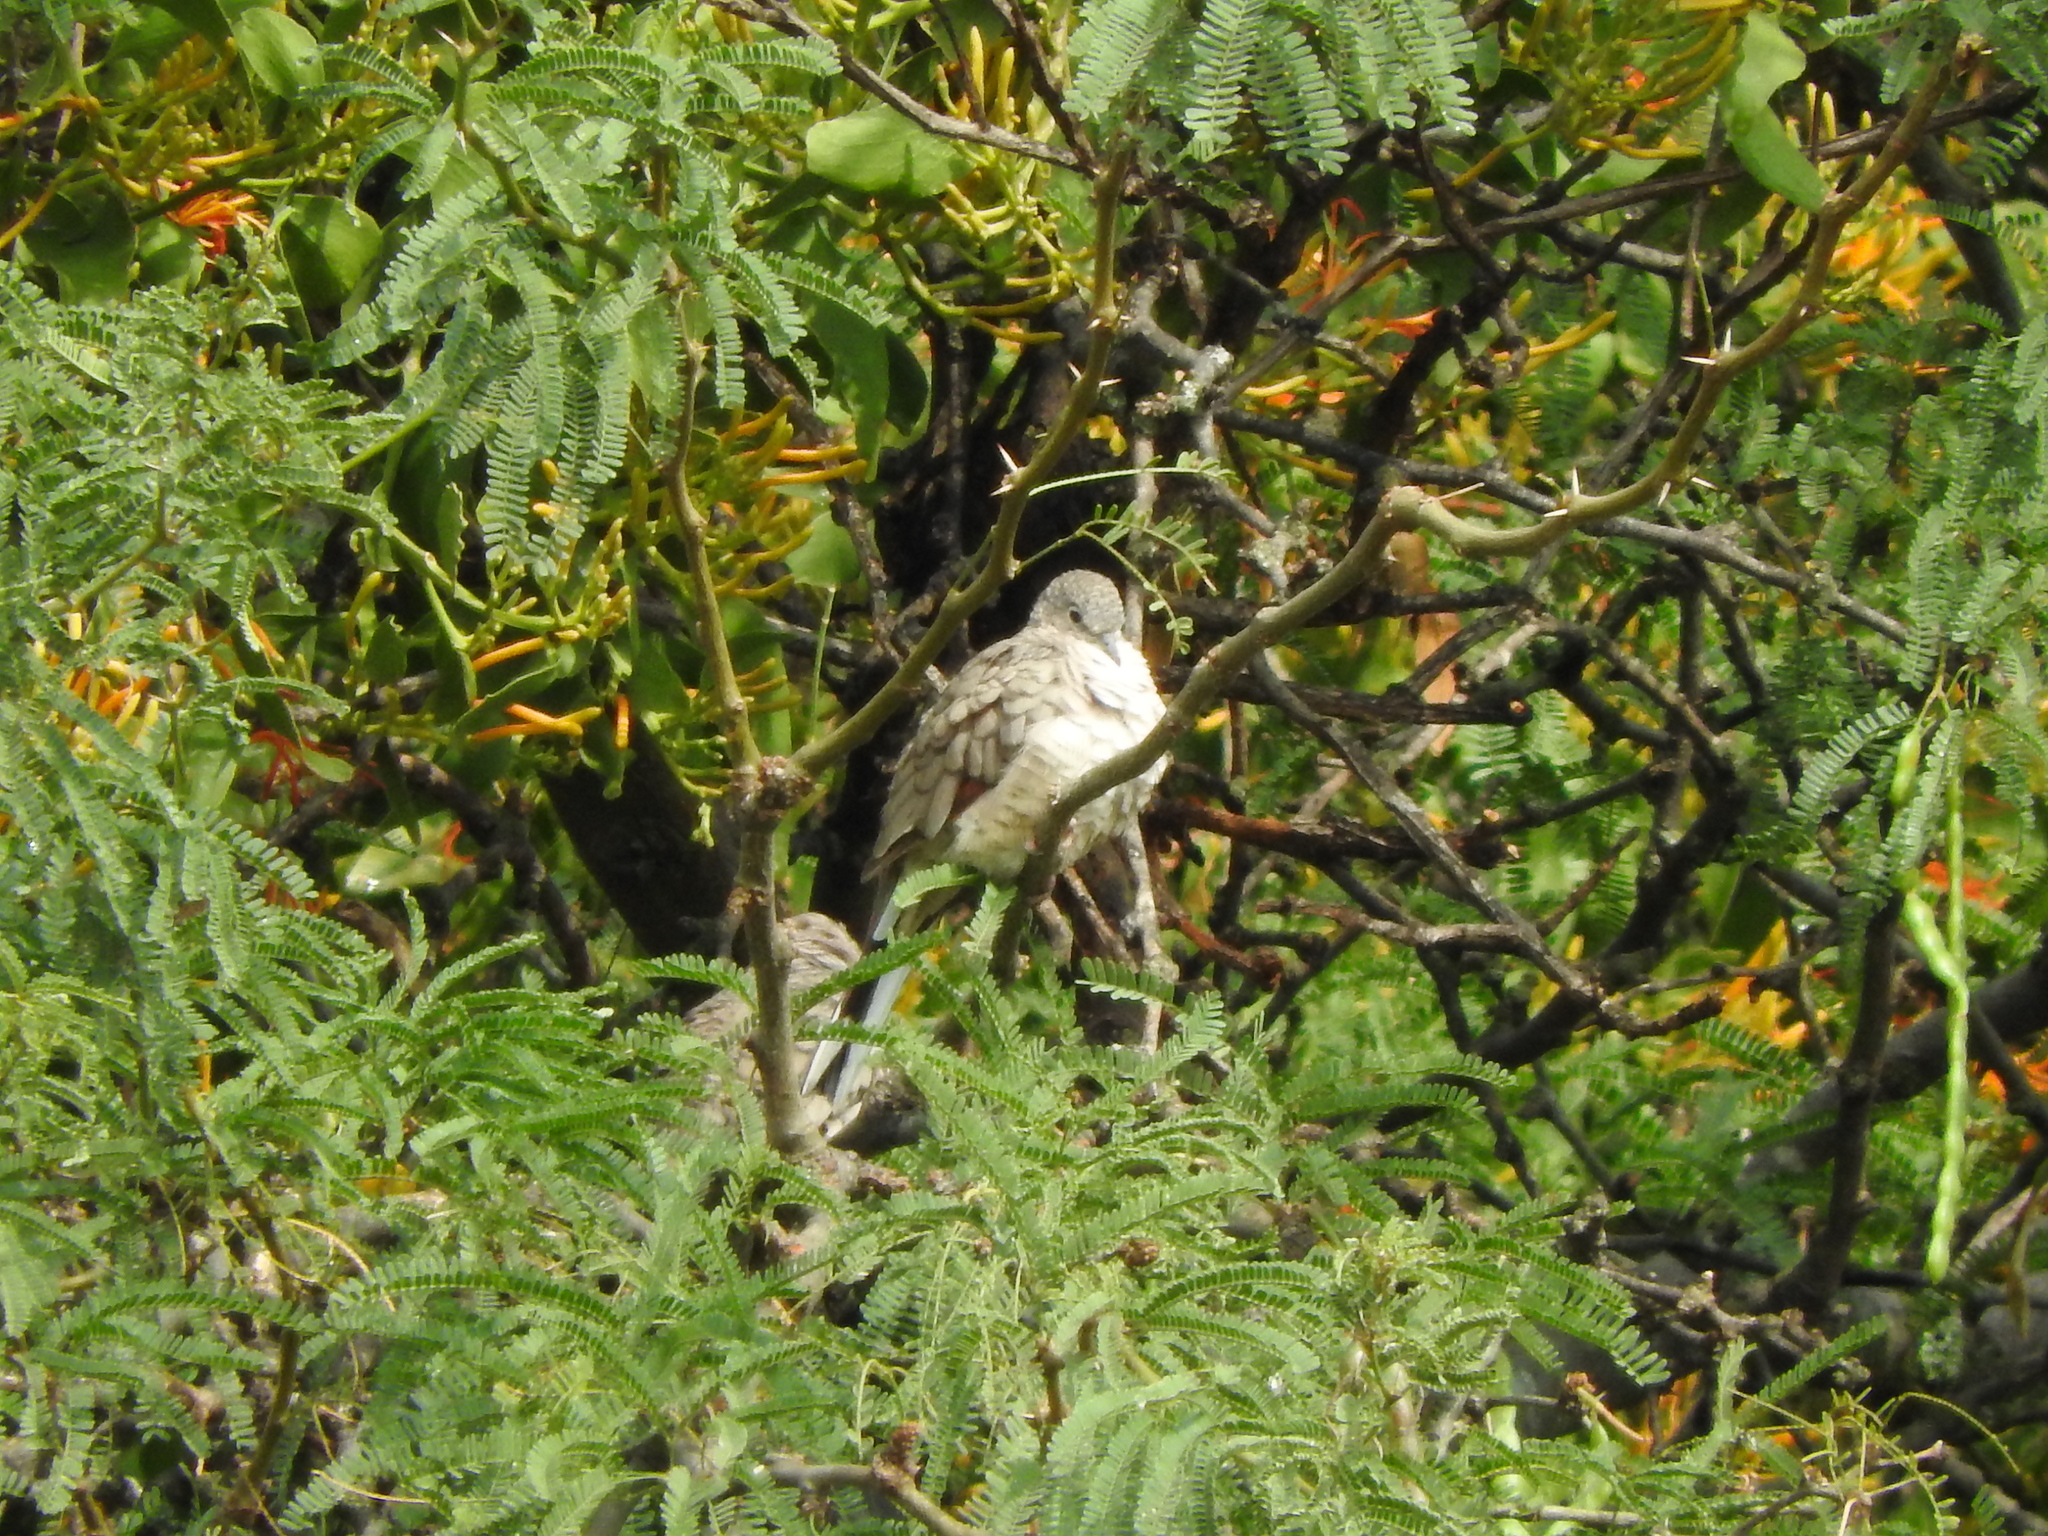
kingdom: Animalia
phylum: Chordata
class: Aves
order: Columbiformes
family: Columbidae
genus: Columbina
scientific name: Columbina inca
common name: Inca dove
